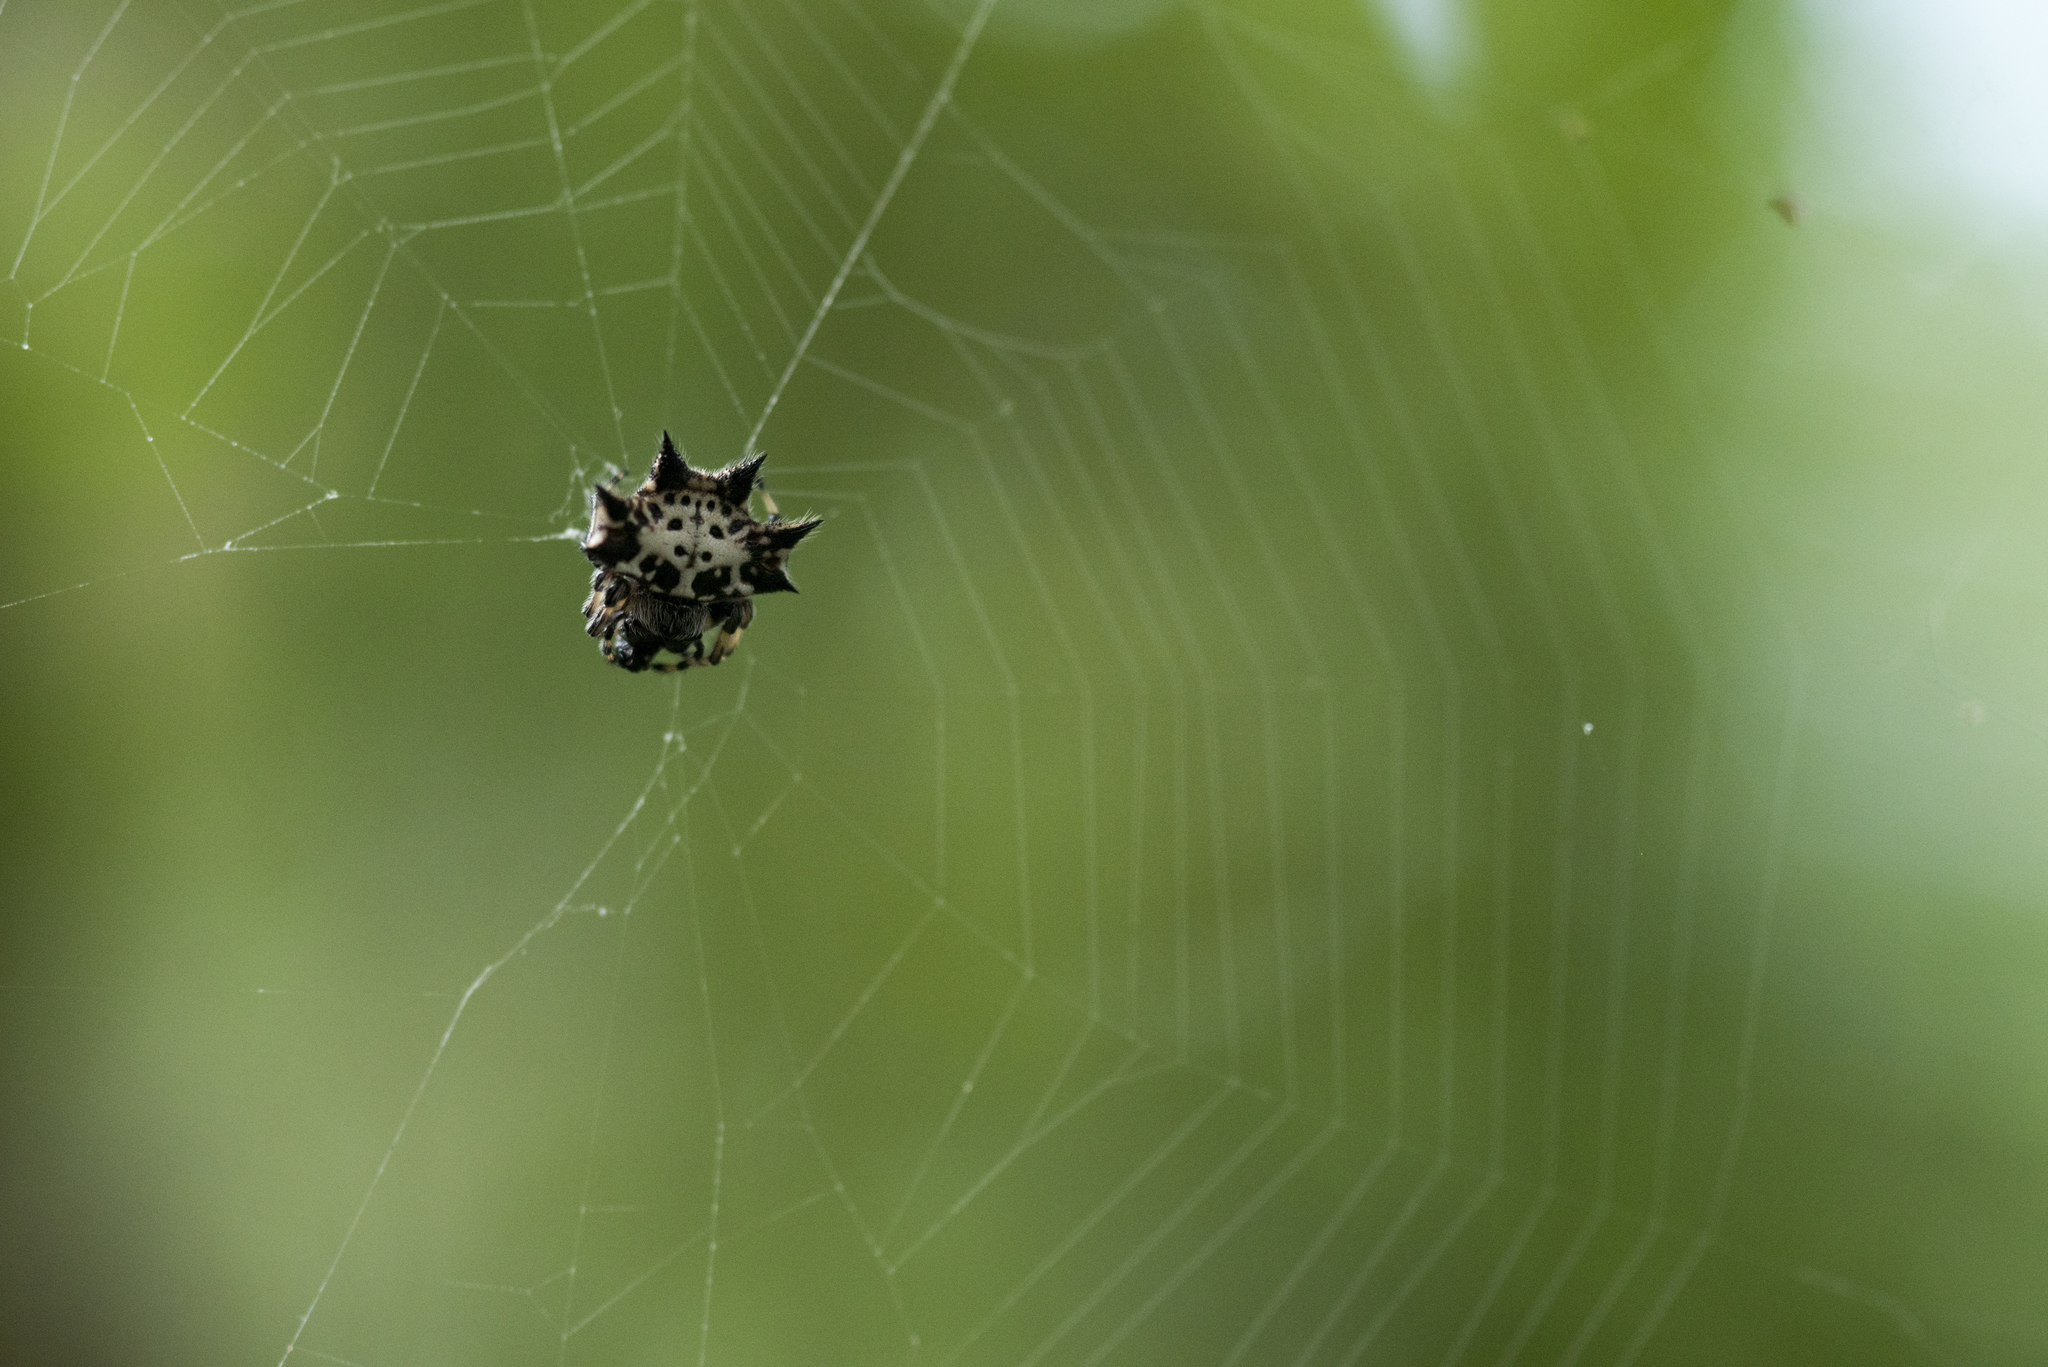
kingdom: Animalia
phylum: Arthropoda
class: Arachnida
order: Araneae
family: Araneidae
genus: Gasteracantha
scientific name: Gasteracantha kuhli
